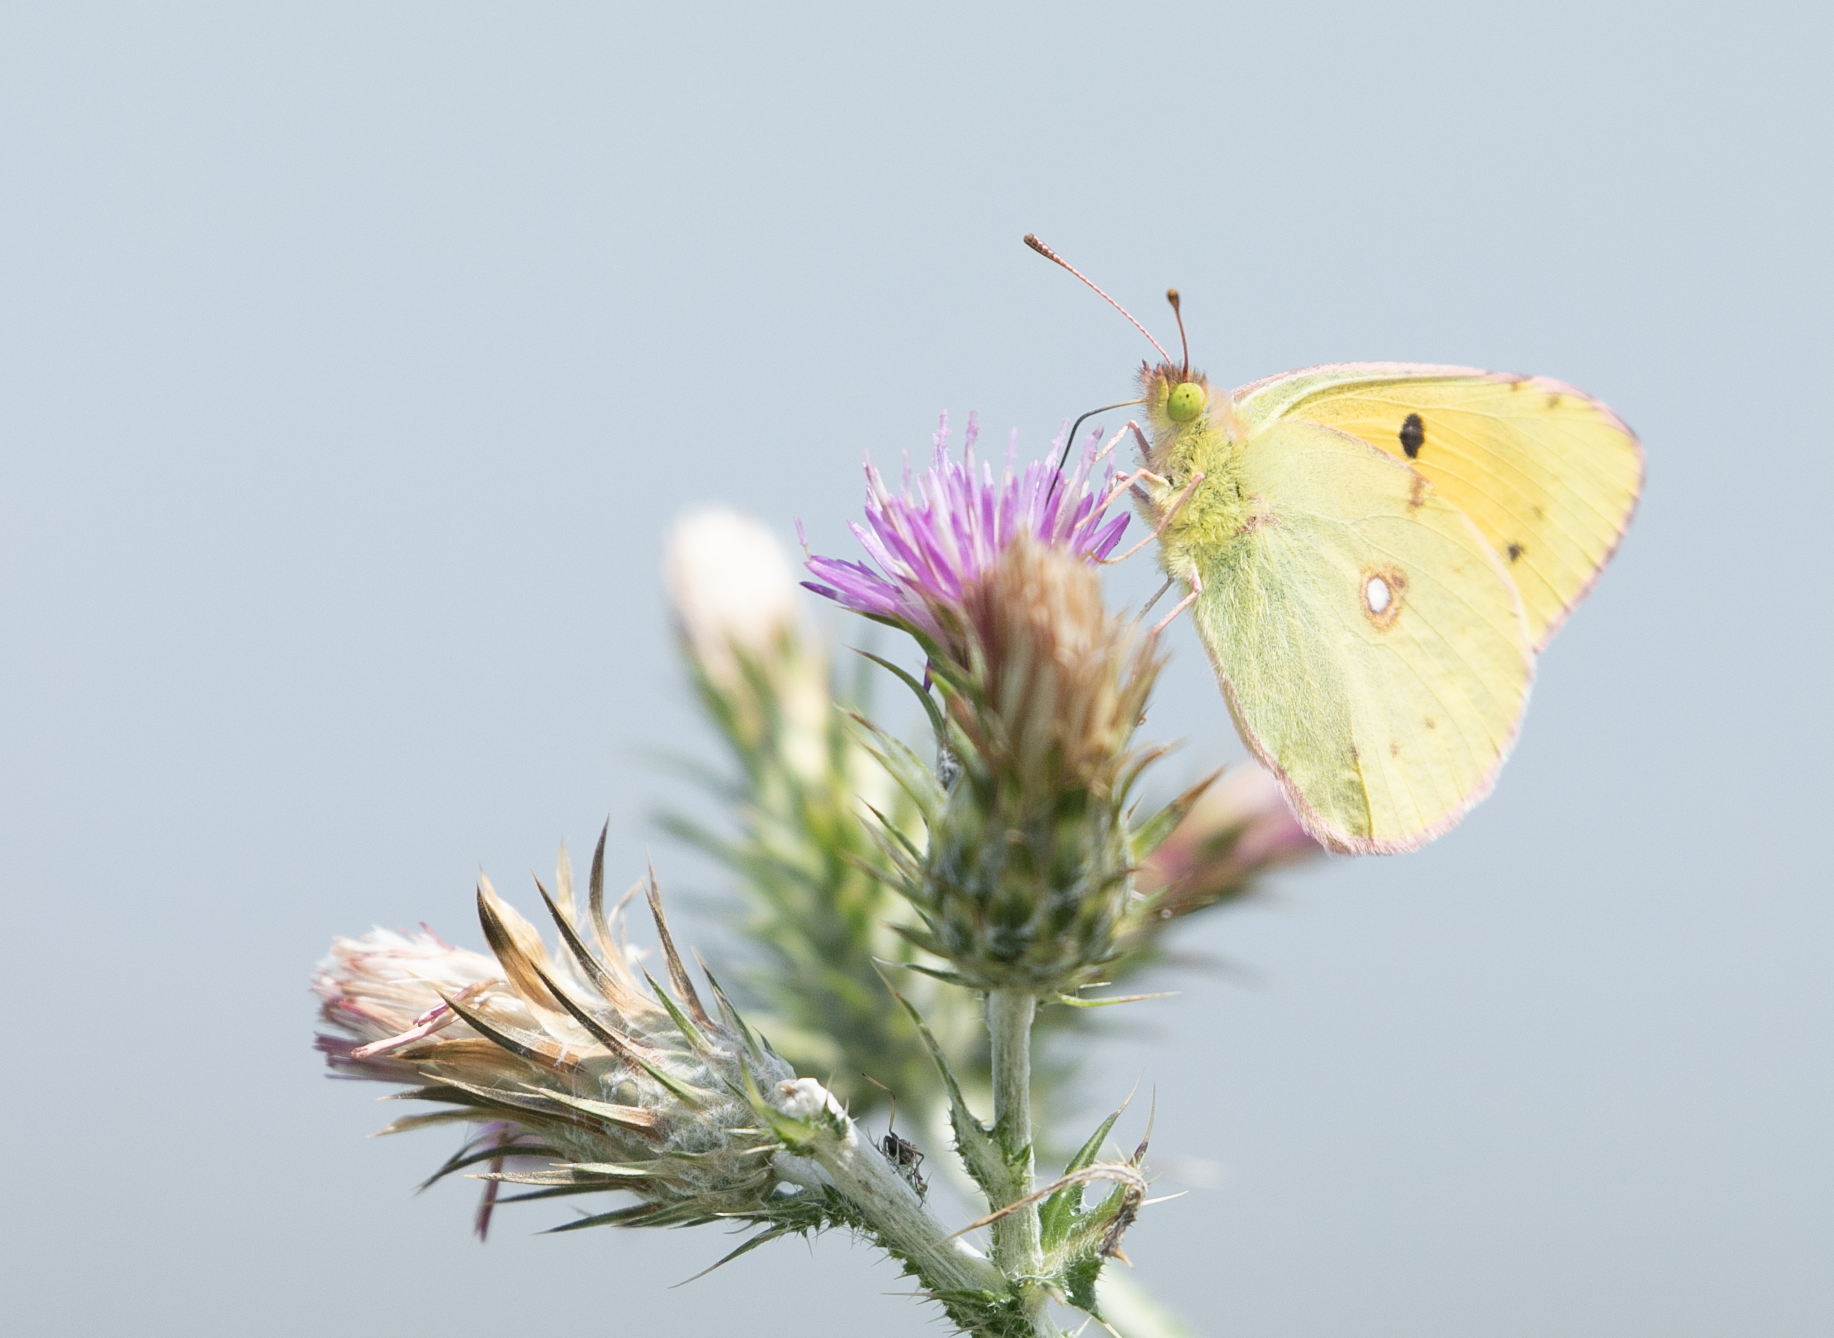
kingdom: Animalia
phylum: Arthropoda
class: Insecta
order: Lepidoptera
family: Pieridae
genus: Colias
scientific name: Colias croceus
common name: Clouded yellow
